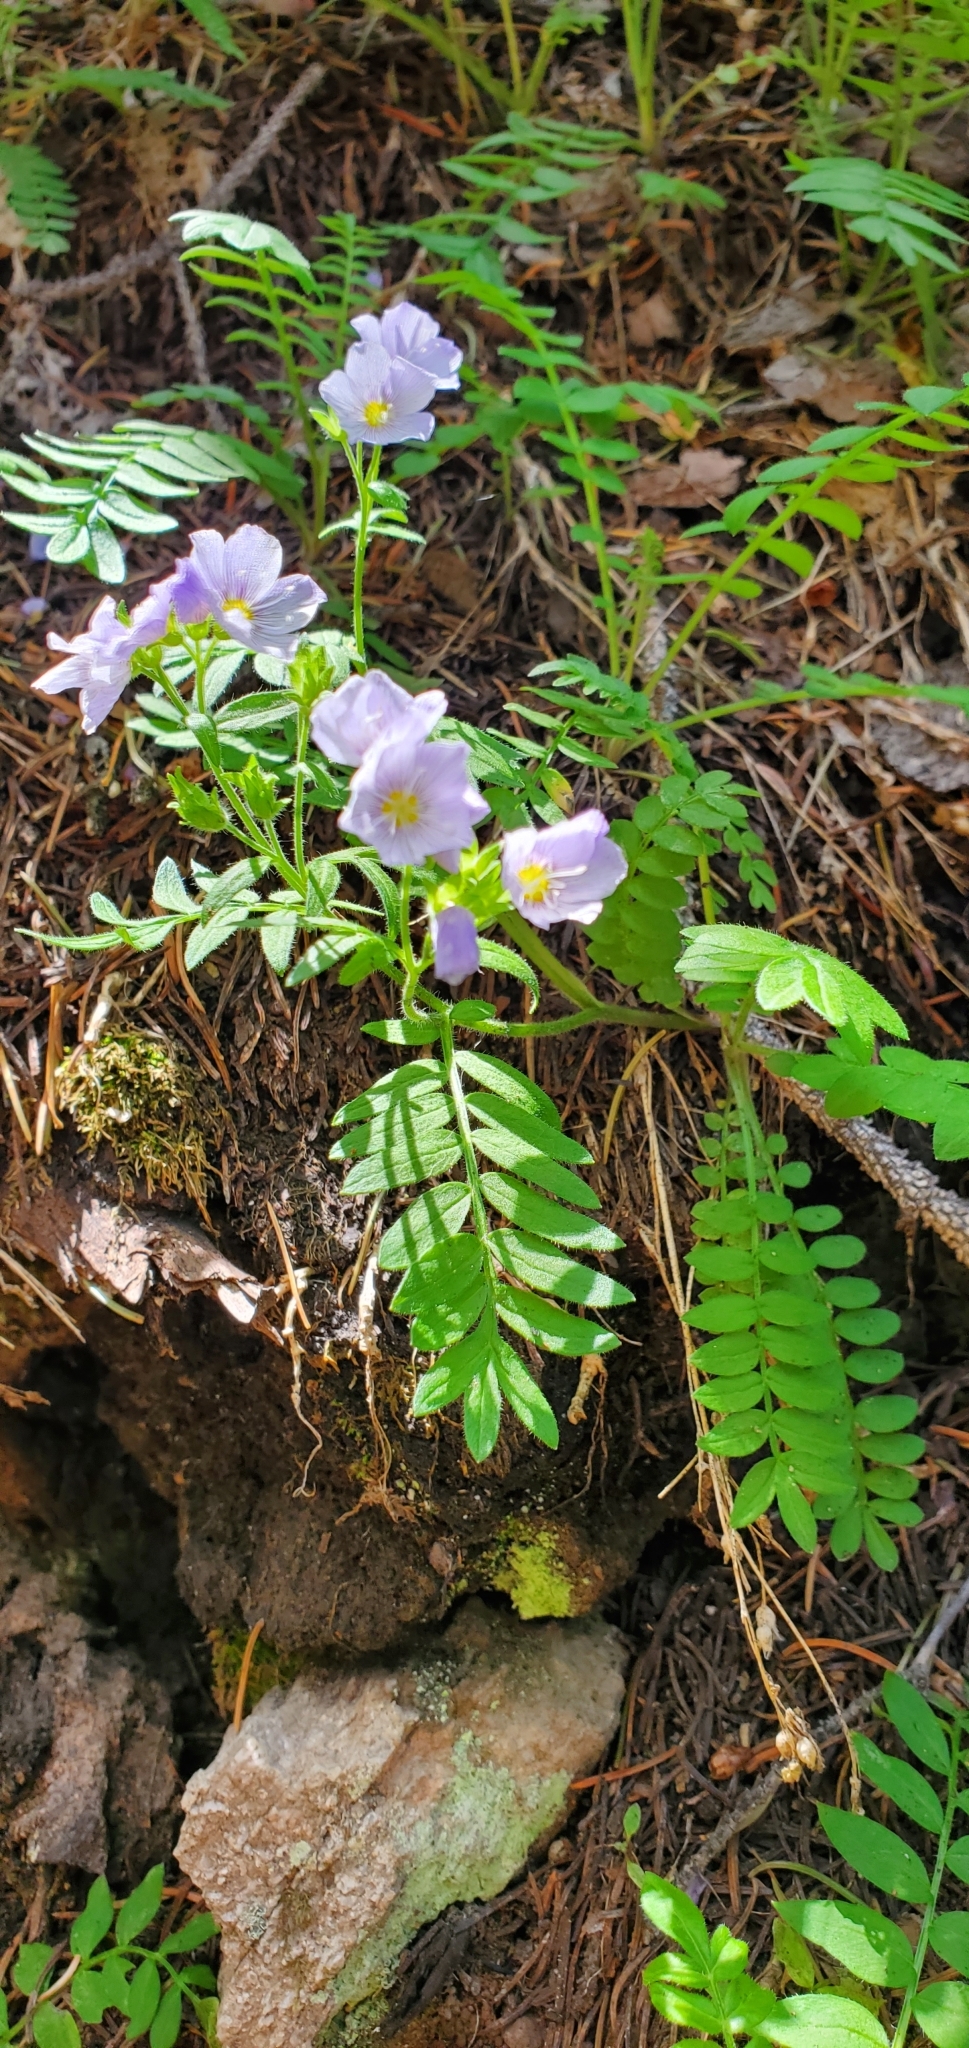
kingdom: Plantae
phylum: Tracheophyta
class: Magnoliopsida
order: Ericales
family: Polemoniaceae
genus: Polemonium
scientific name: Polemonium pulcherrimum
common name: Short jacob's-ladder
